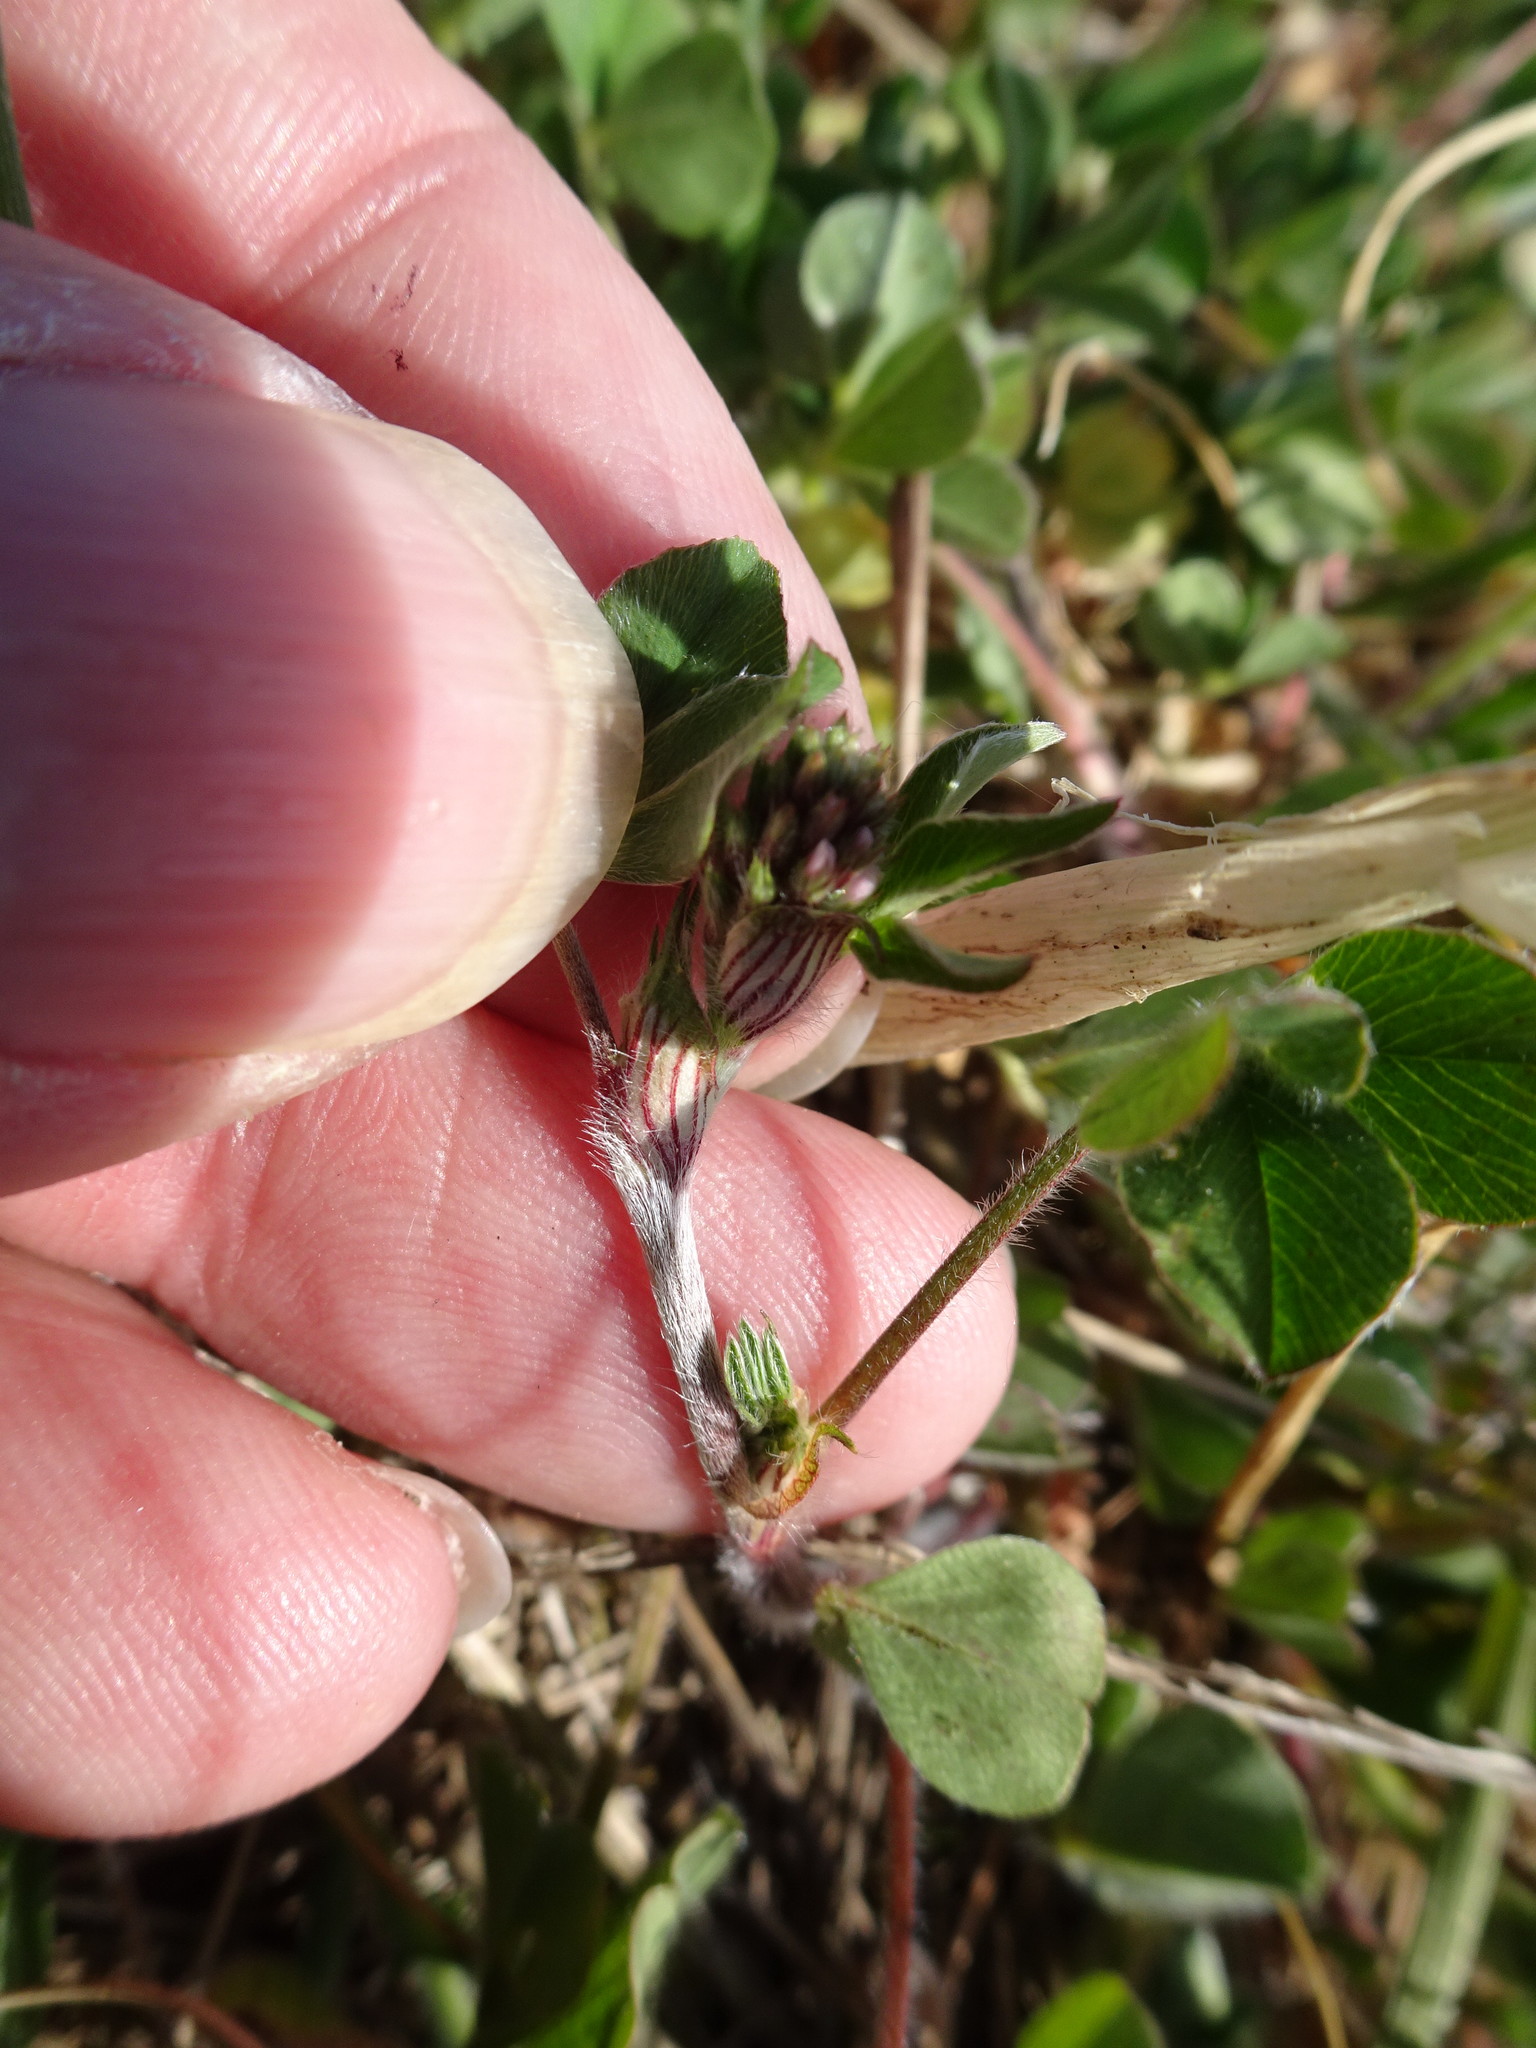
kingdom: Plantae
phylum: Tracheophyta
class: Magnoliopsida
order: Fabales
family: Fabaceae
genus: Trifolium
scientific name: Trifolium striatum
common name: Knotted clover
